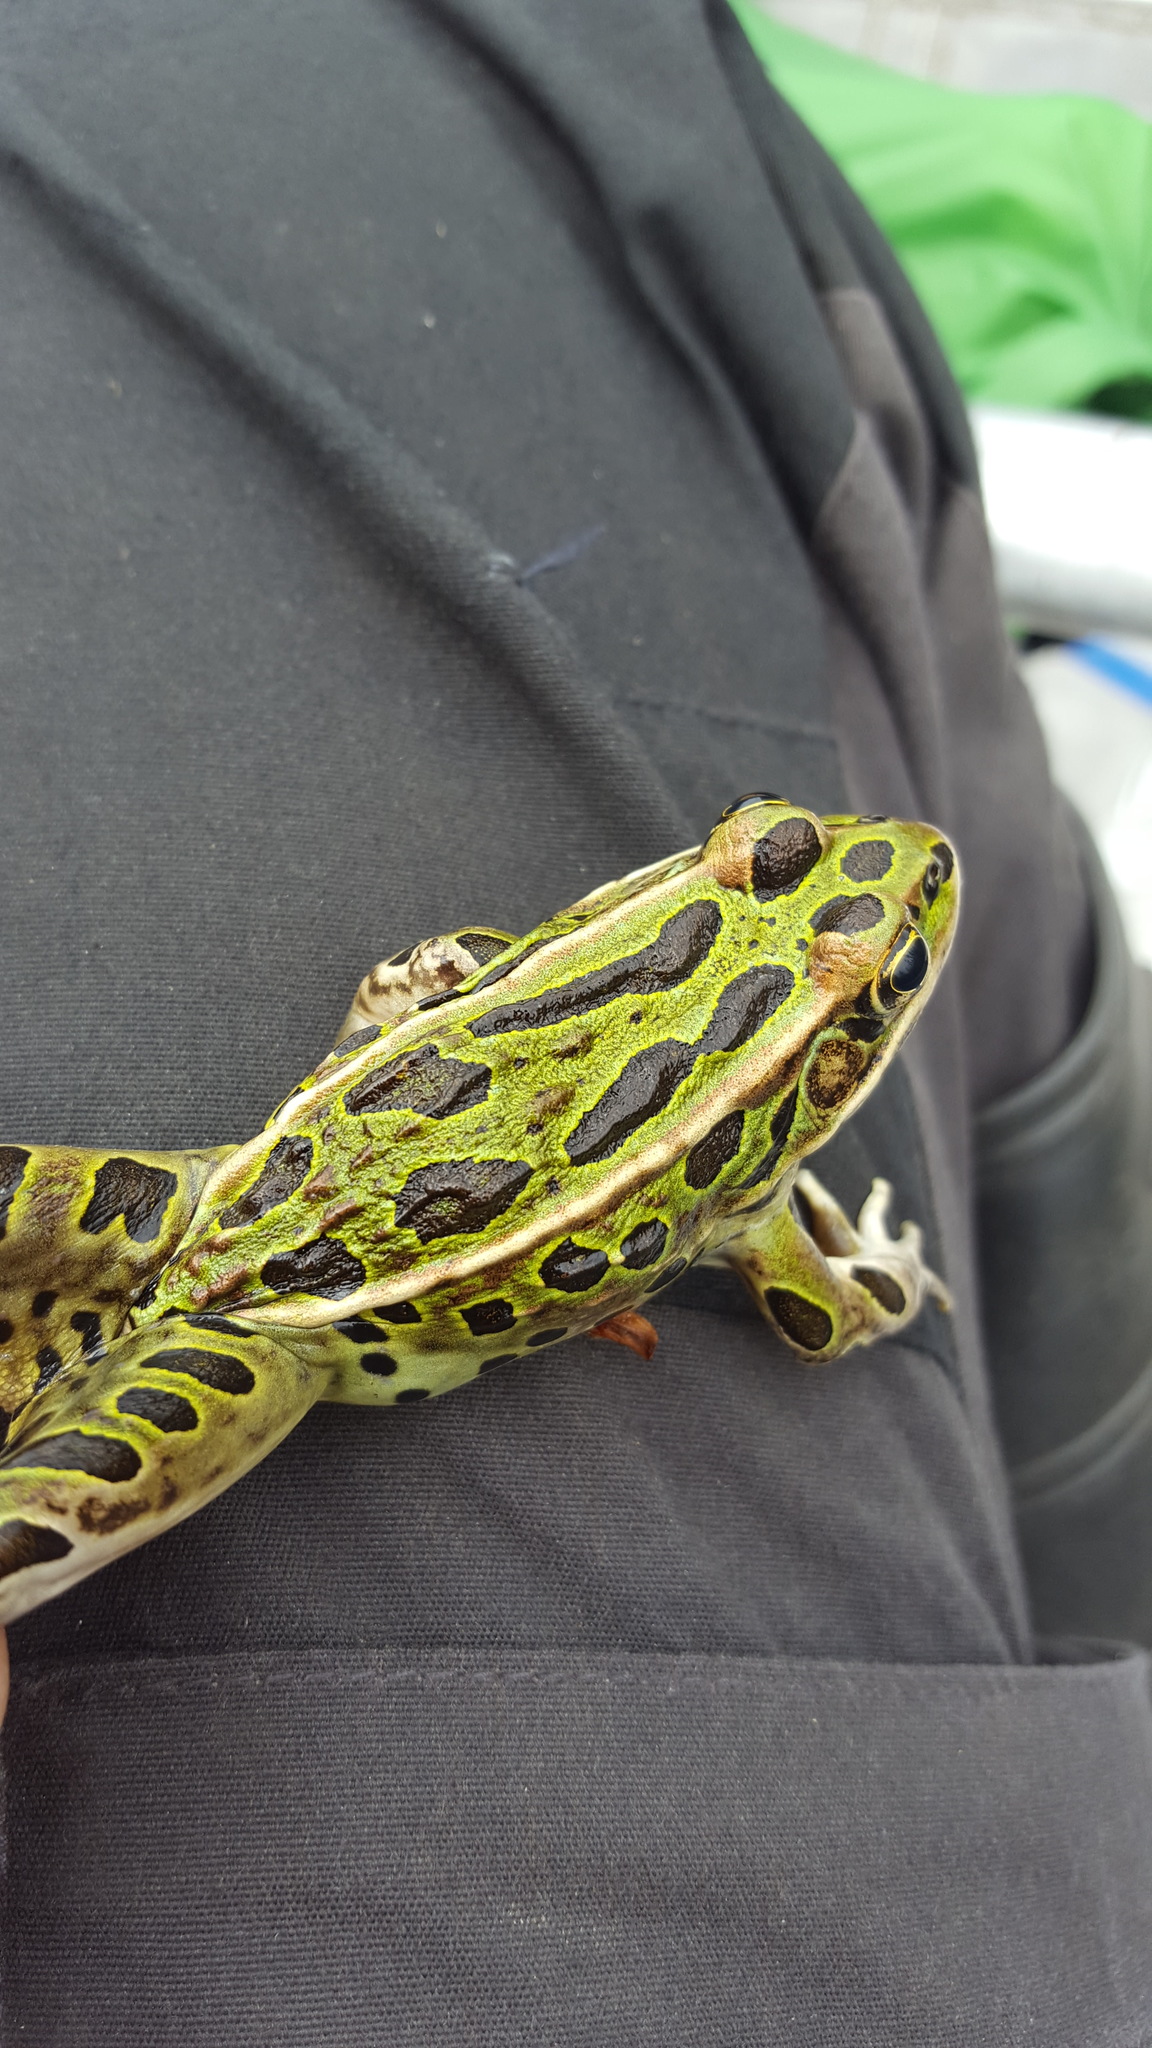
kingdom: Animalia
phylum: Chordata
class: Amphibia
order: Anura
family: Ranidae
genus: Lithobates
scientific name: Lithobates pipiens
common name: Northern leopard frog
